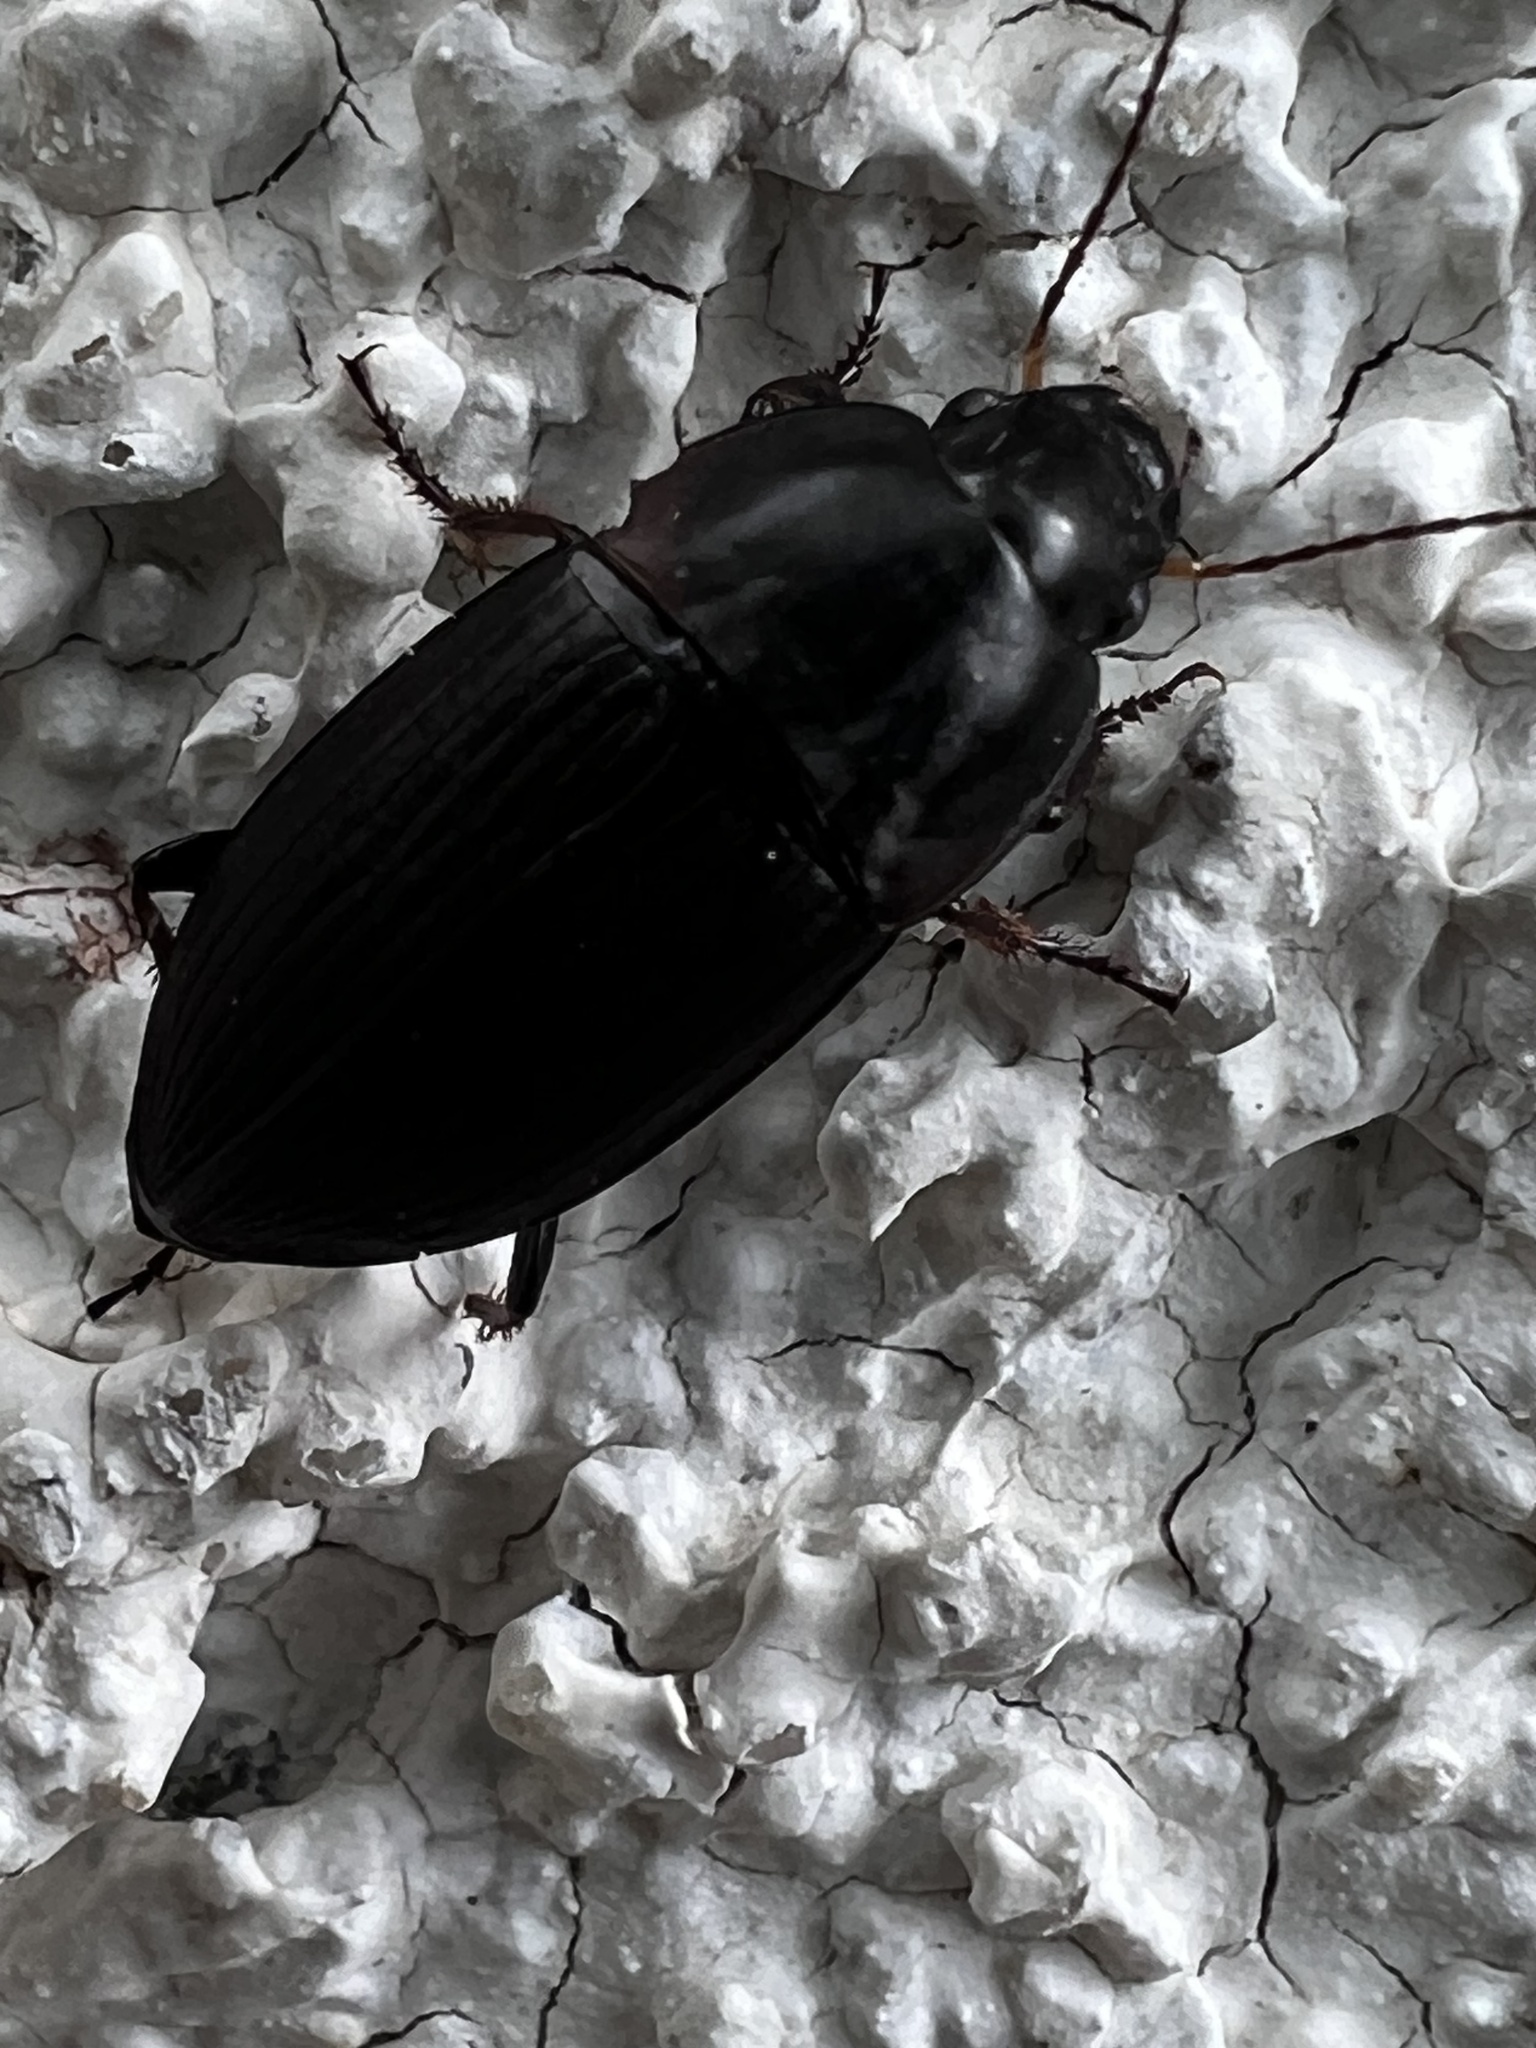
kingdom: Animalia
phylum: Arthropoda
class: Insecta
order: Coleoptera
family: Carabidae
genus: Anisodactylus
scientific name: Anisodactylus rusticus
